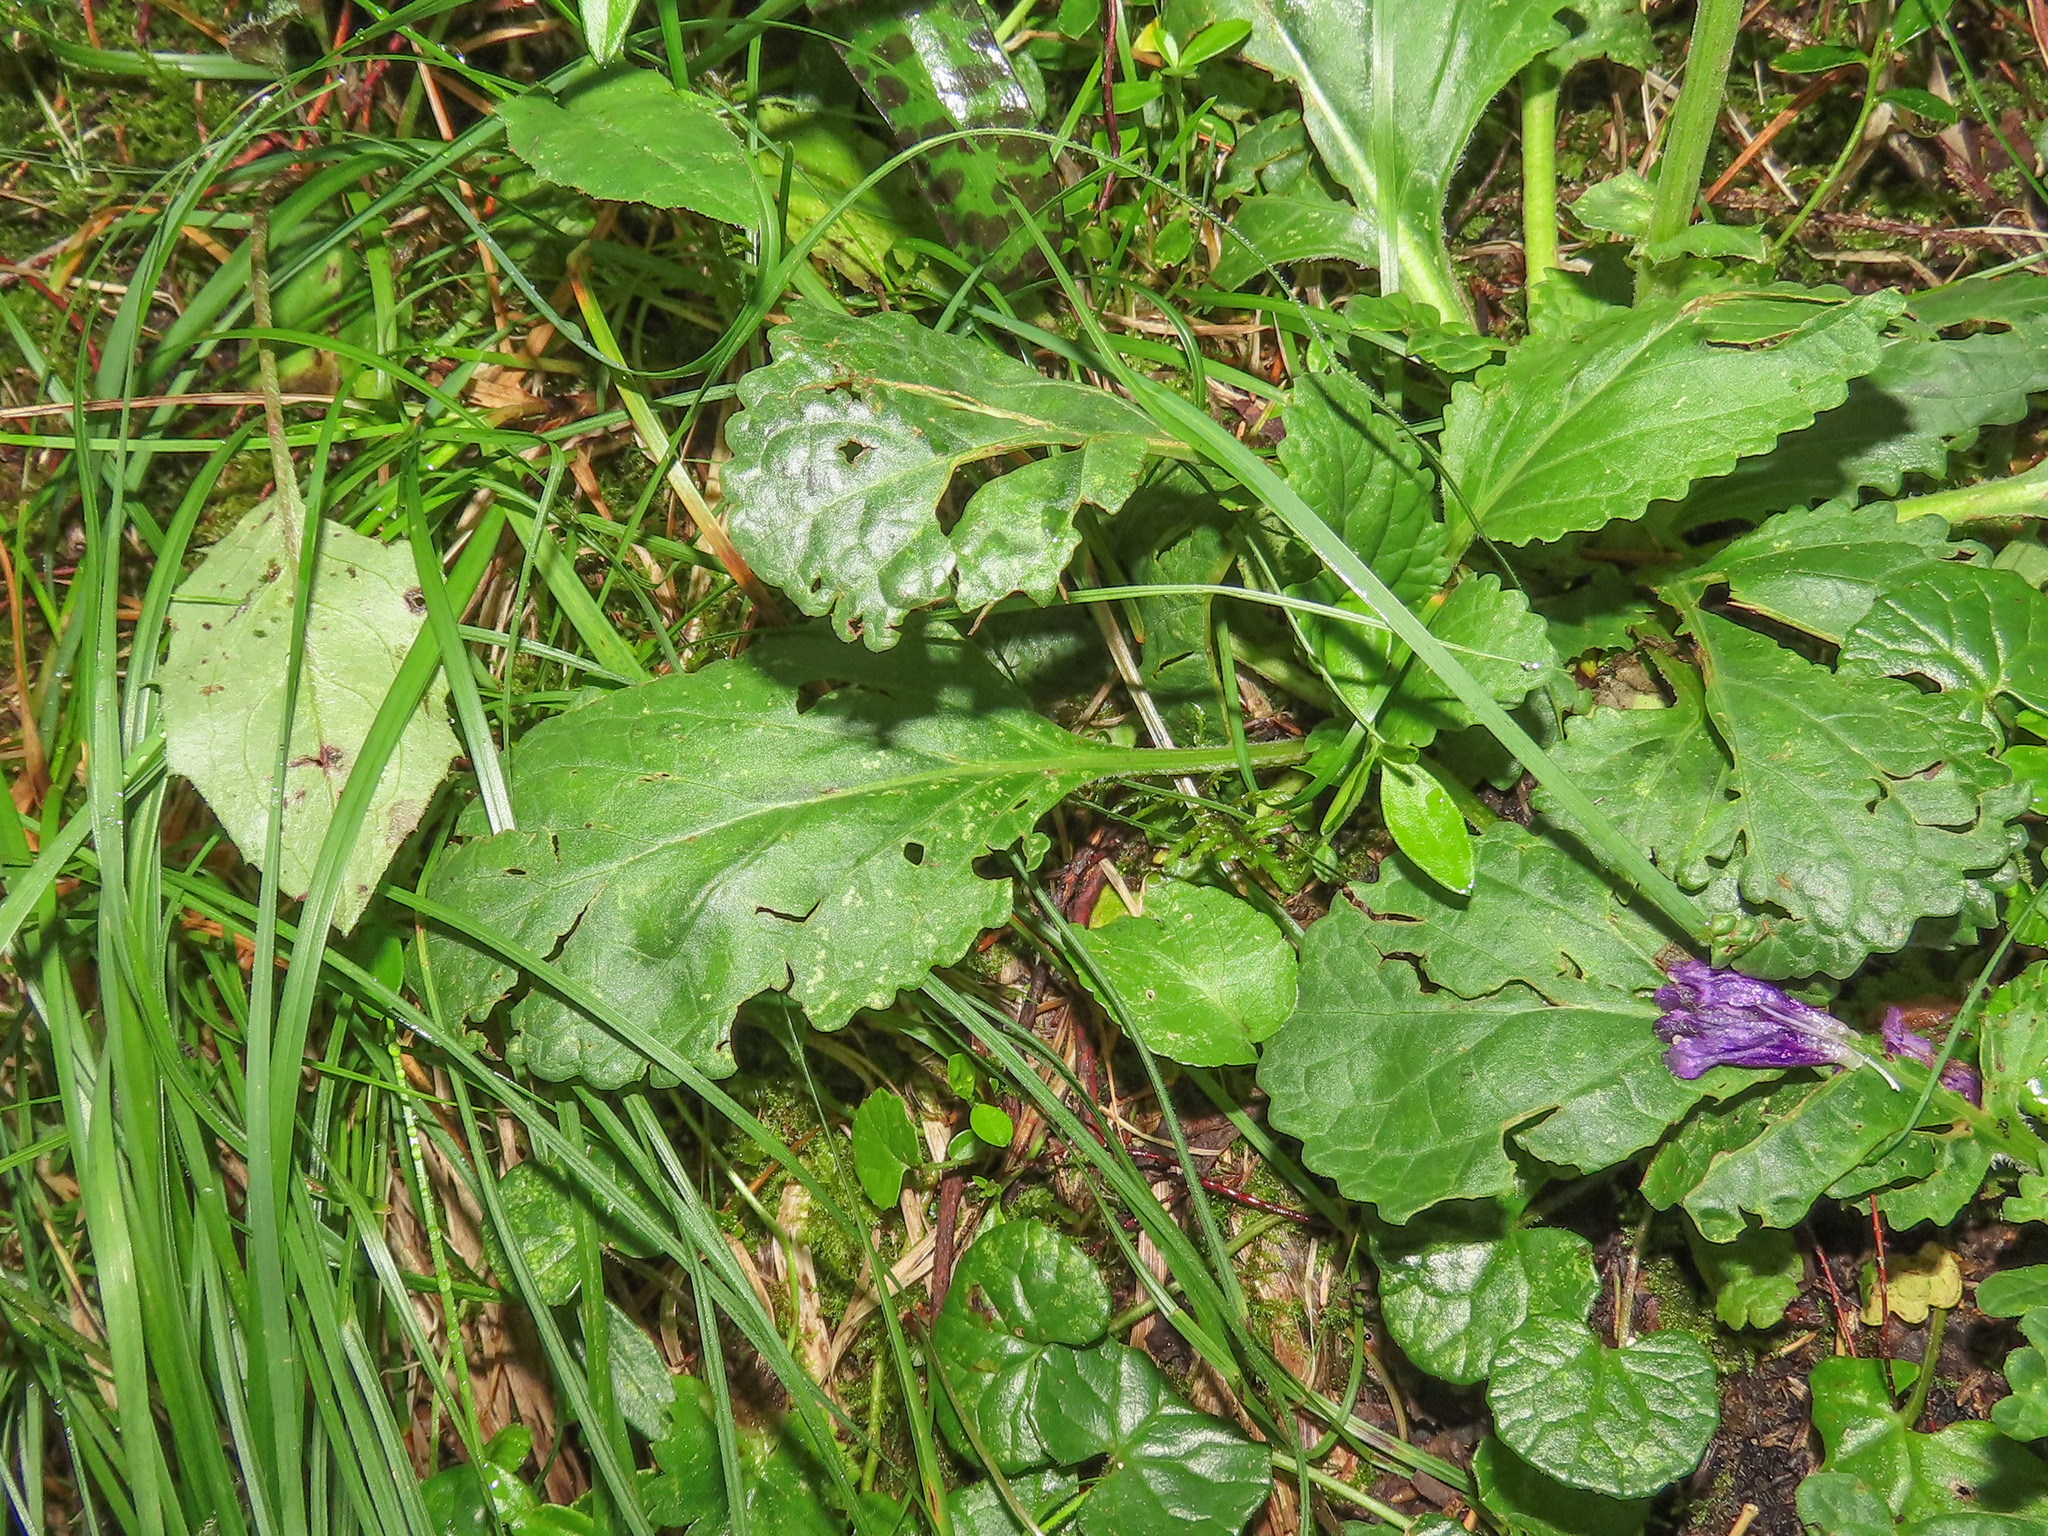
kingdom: Plantae
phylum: Tracheophyta
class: Magnoliopsida
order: Lamiales
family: Lamiaceae
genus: Horminum
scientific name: Horminum pyrenaicum
